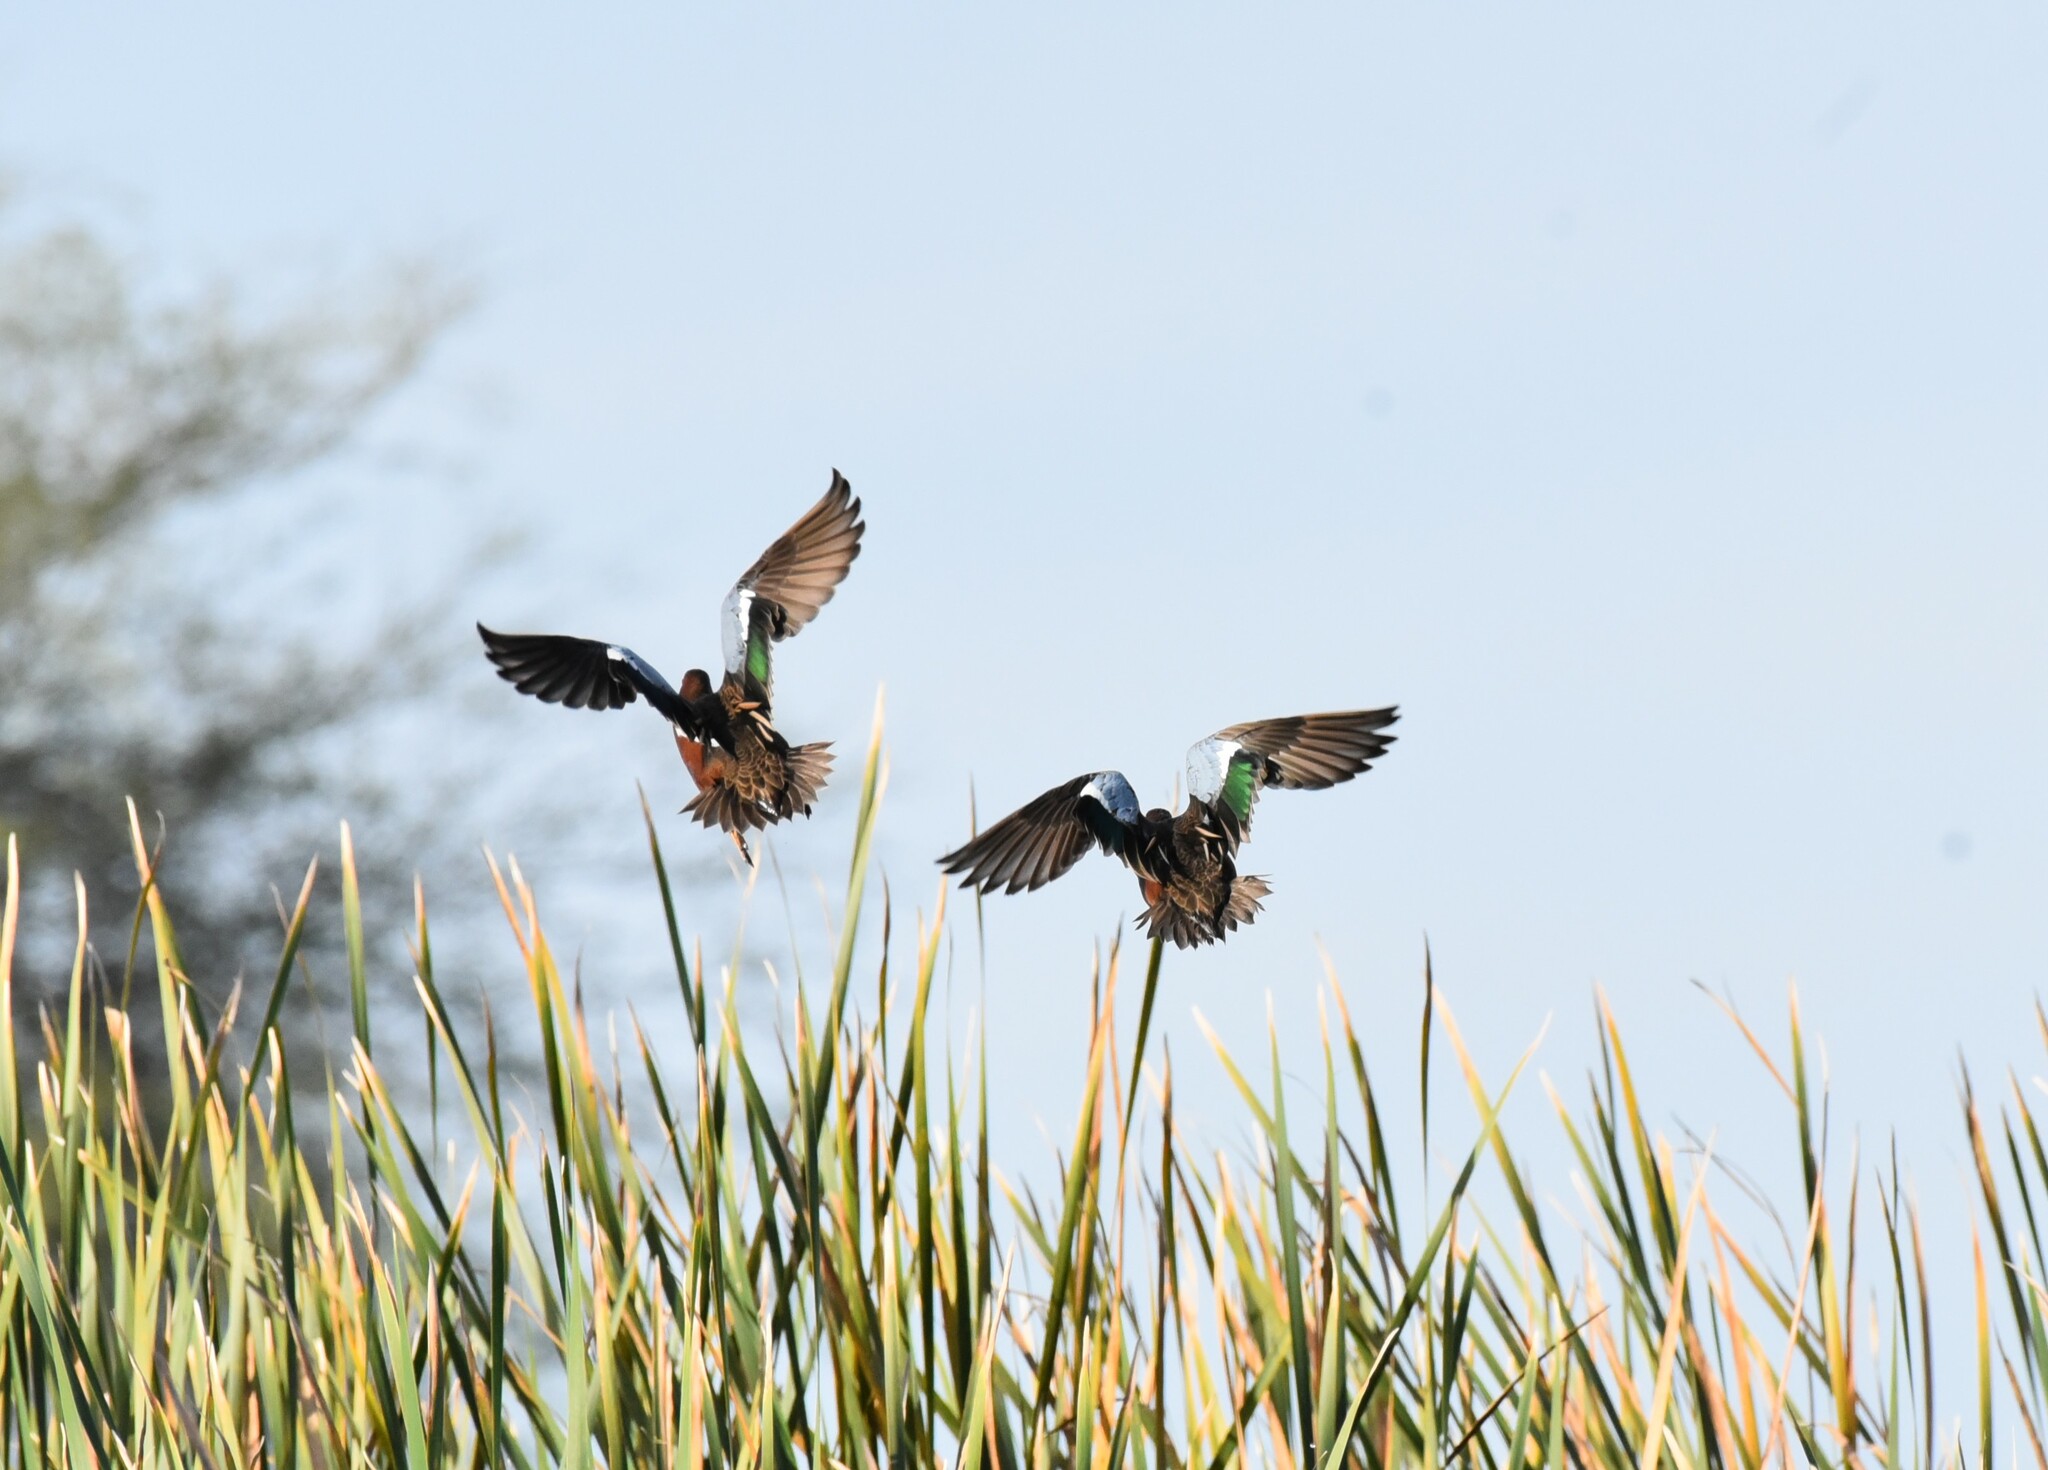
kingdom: Animalia
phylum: Chordata
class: Aves
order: Anseriformes
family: Anatidae
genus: Spatula
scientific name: Spatula cyanoptera
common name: Cinnamon teal
